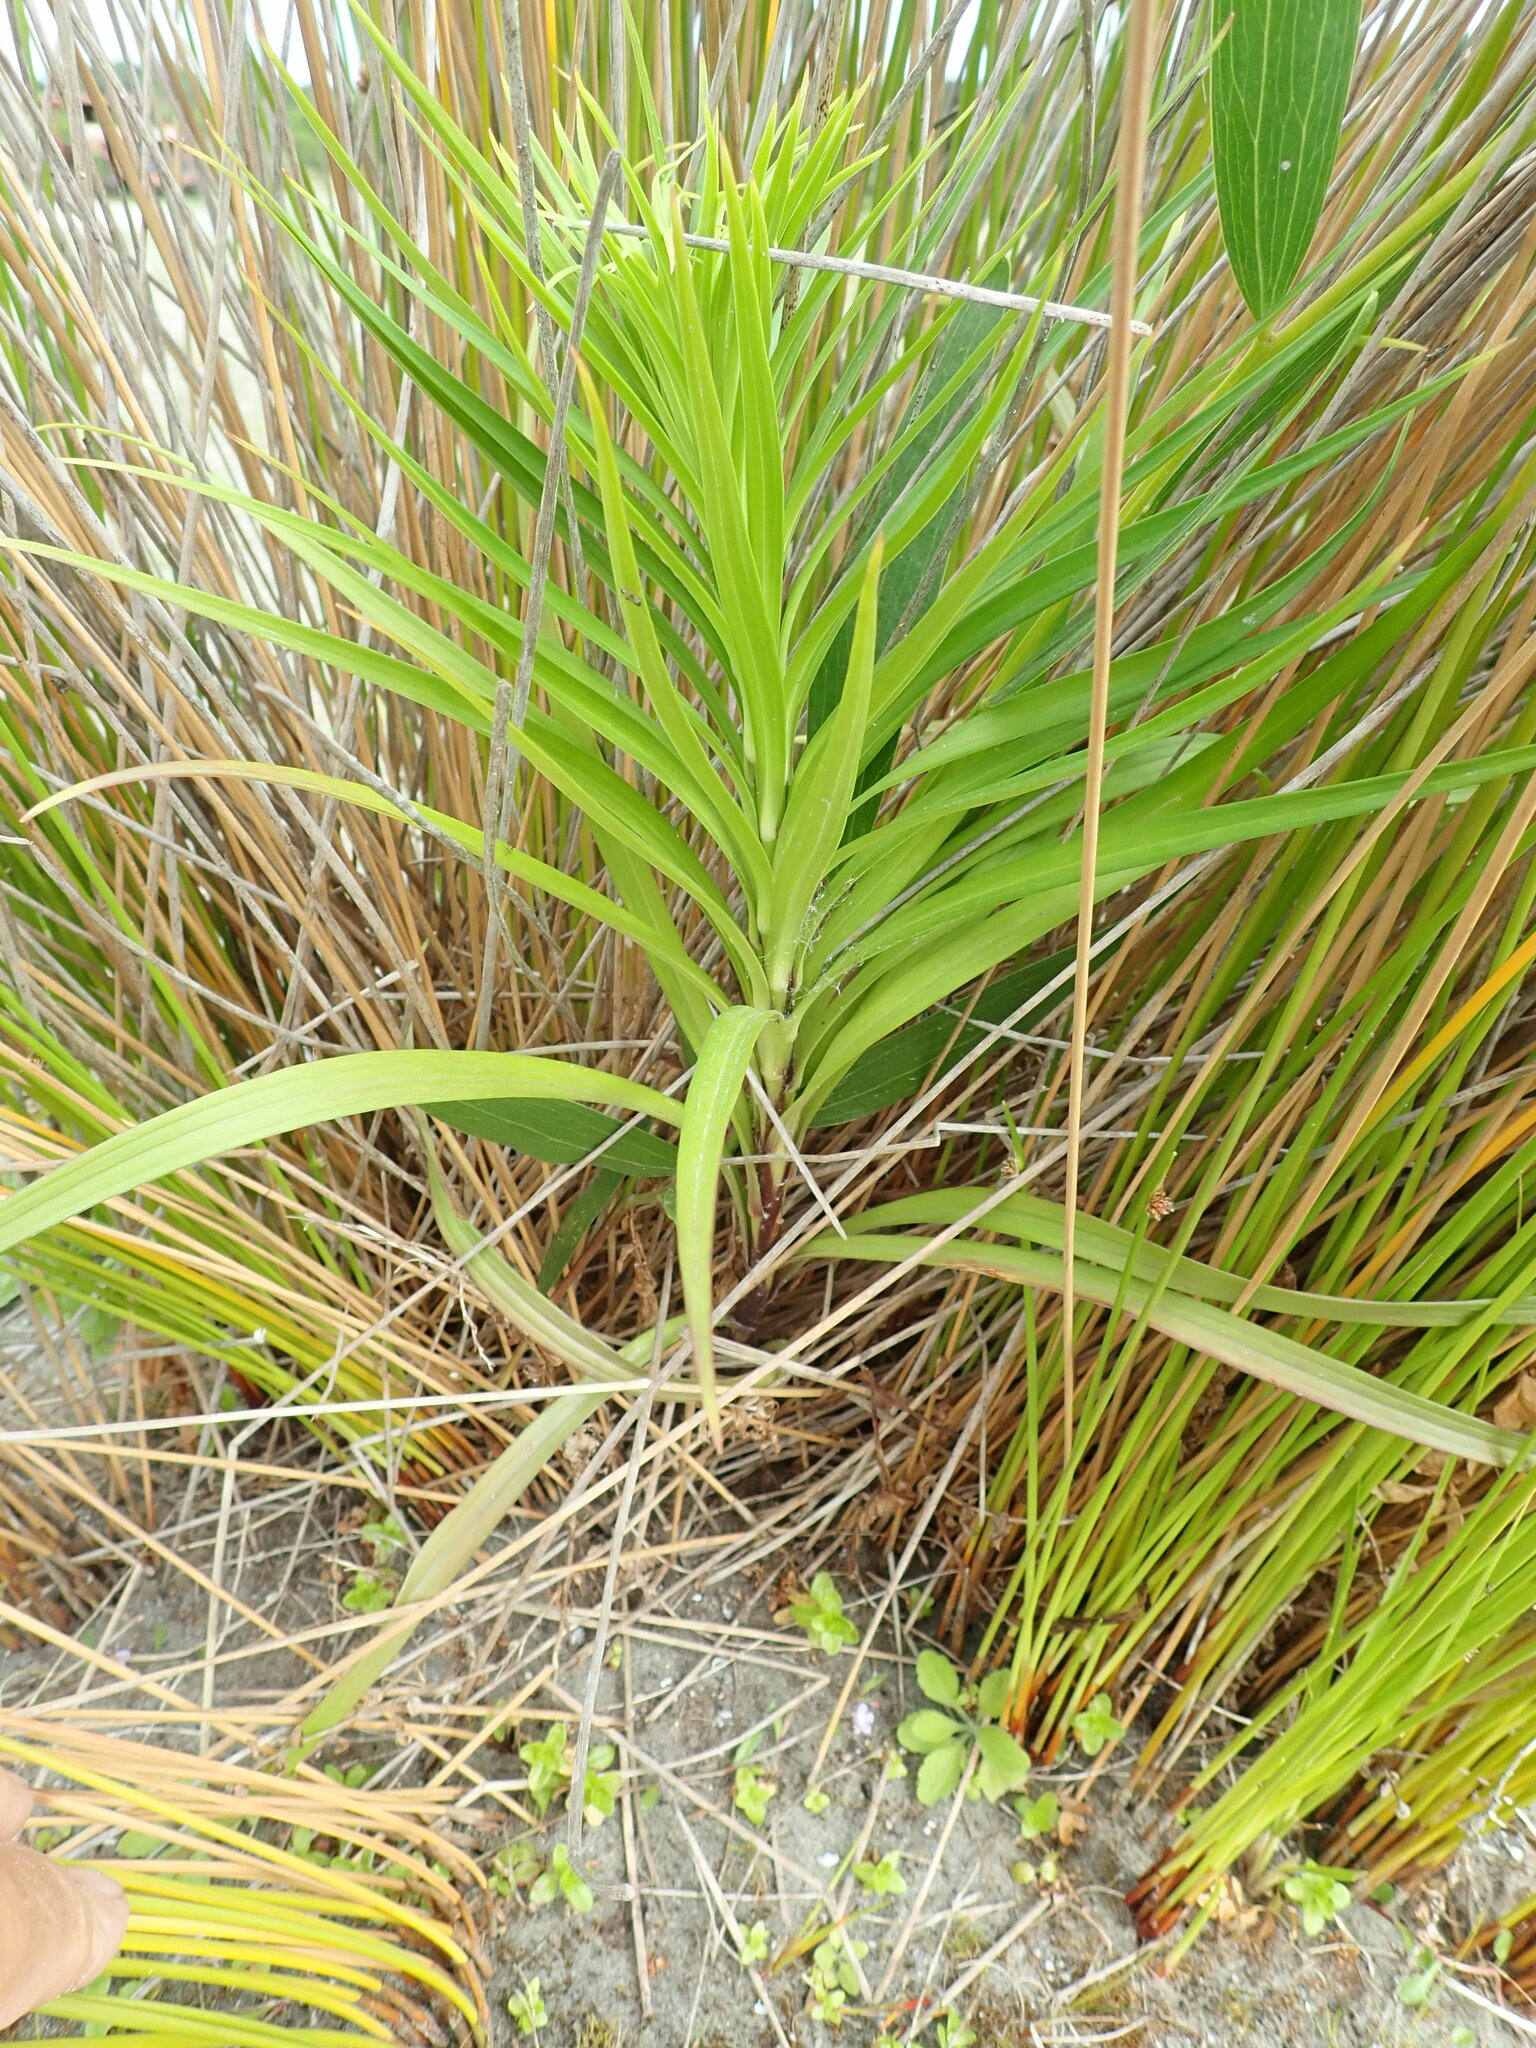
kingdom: Plantae
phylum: Tracheophyta
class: Magnoliopsida
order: Fabales
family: Fabaceae
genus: Acacia
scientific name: Acacia longifolia
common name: Sydney golden wattle
